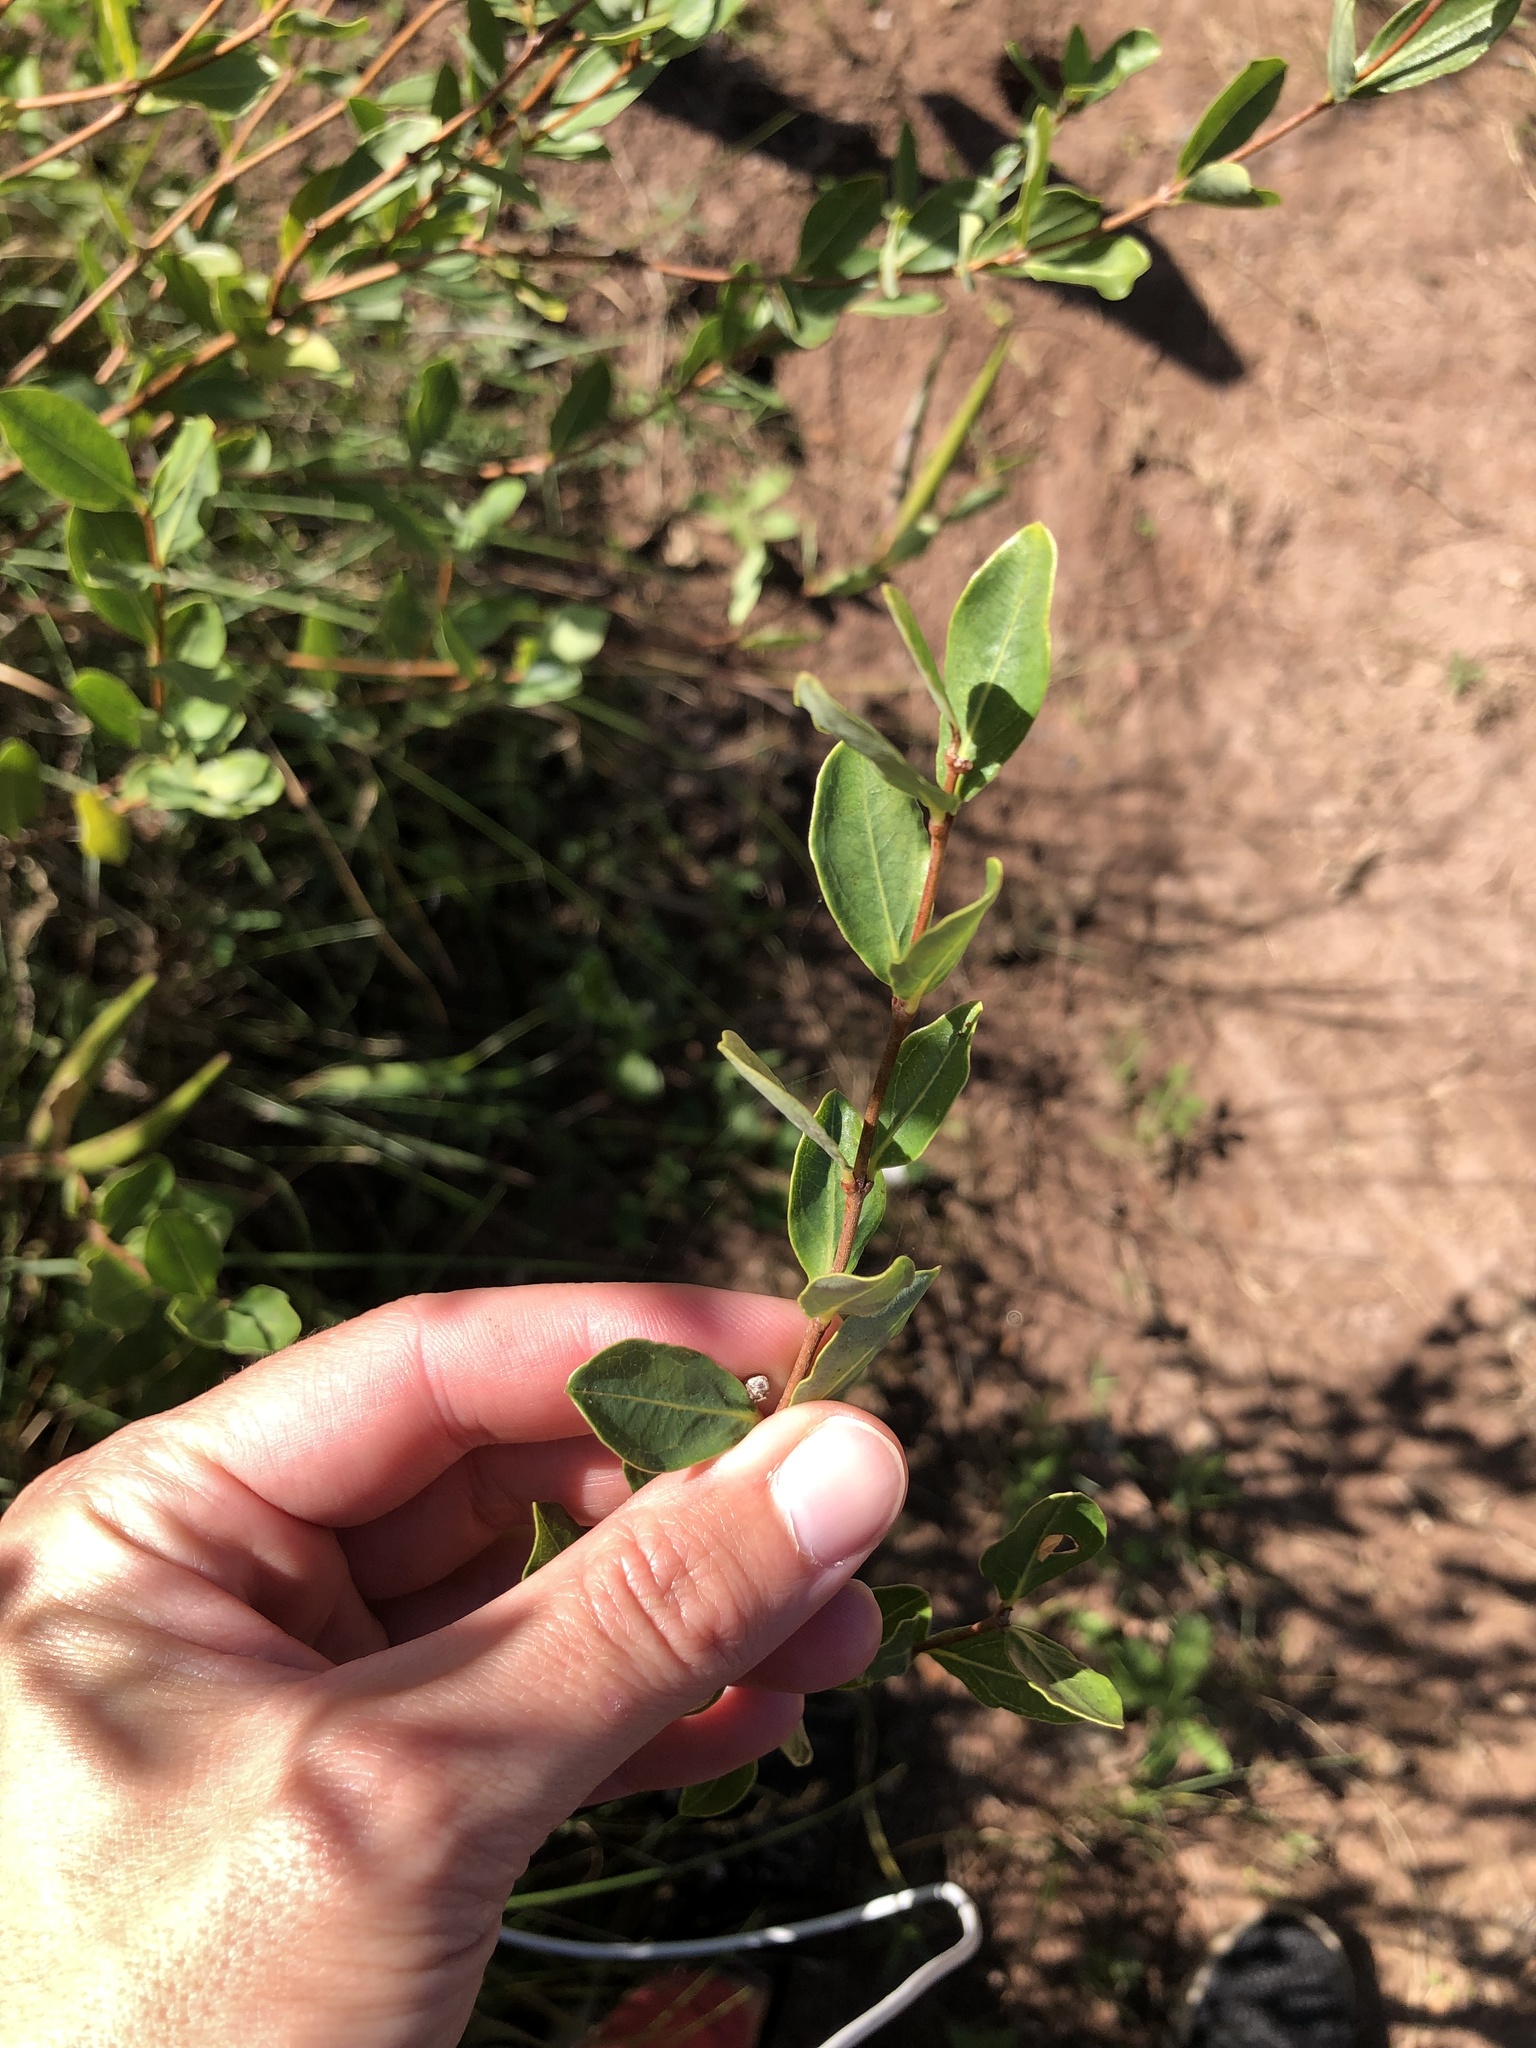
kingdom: Plantae
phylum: Tracheophyta
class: Magnoliopsida
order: Gentianales
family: Apocynaceae
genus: Cryptolepis
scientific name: Cryptolepis oblongifolia
